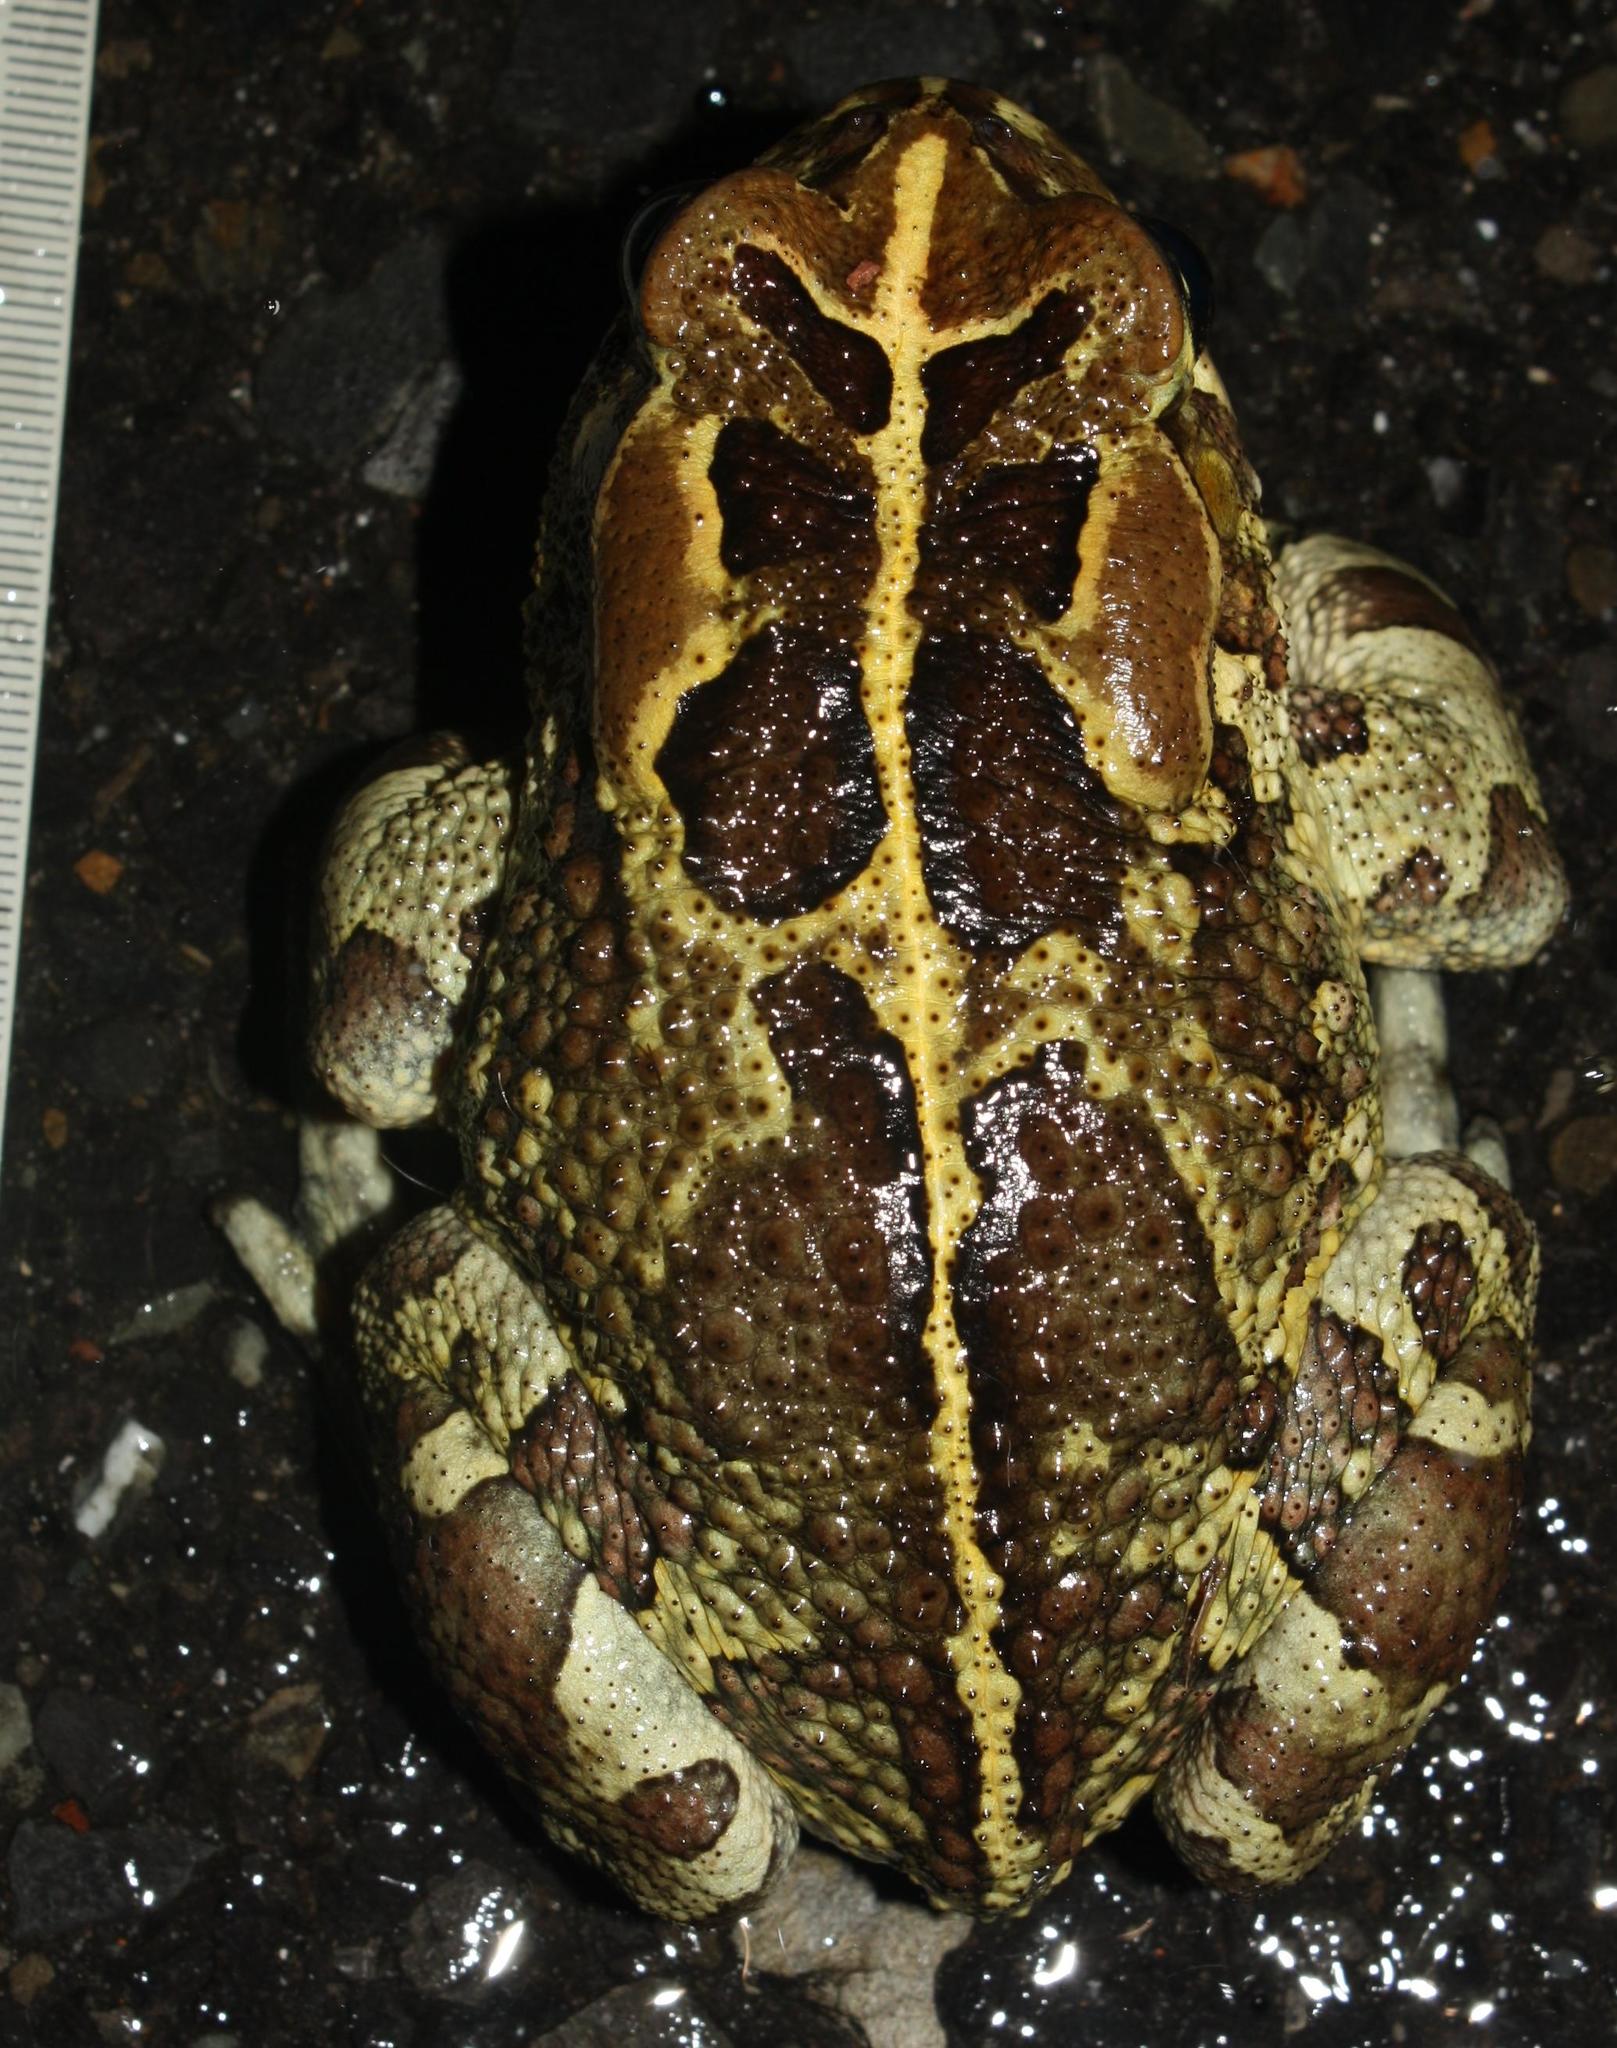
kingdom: Animalia
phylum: Chordata
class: Amphibia
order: Anura
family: Bufonidae
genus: Sclerophrys
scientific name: Sclerophrys pantherina
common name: Panther toad
